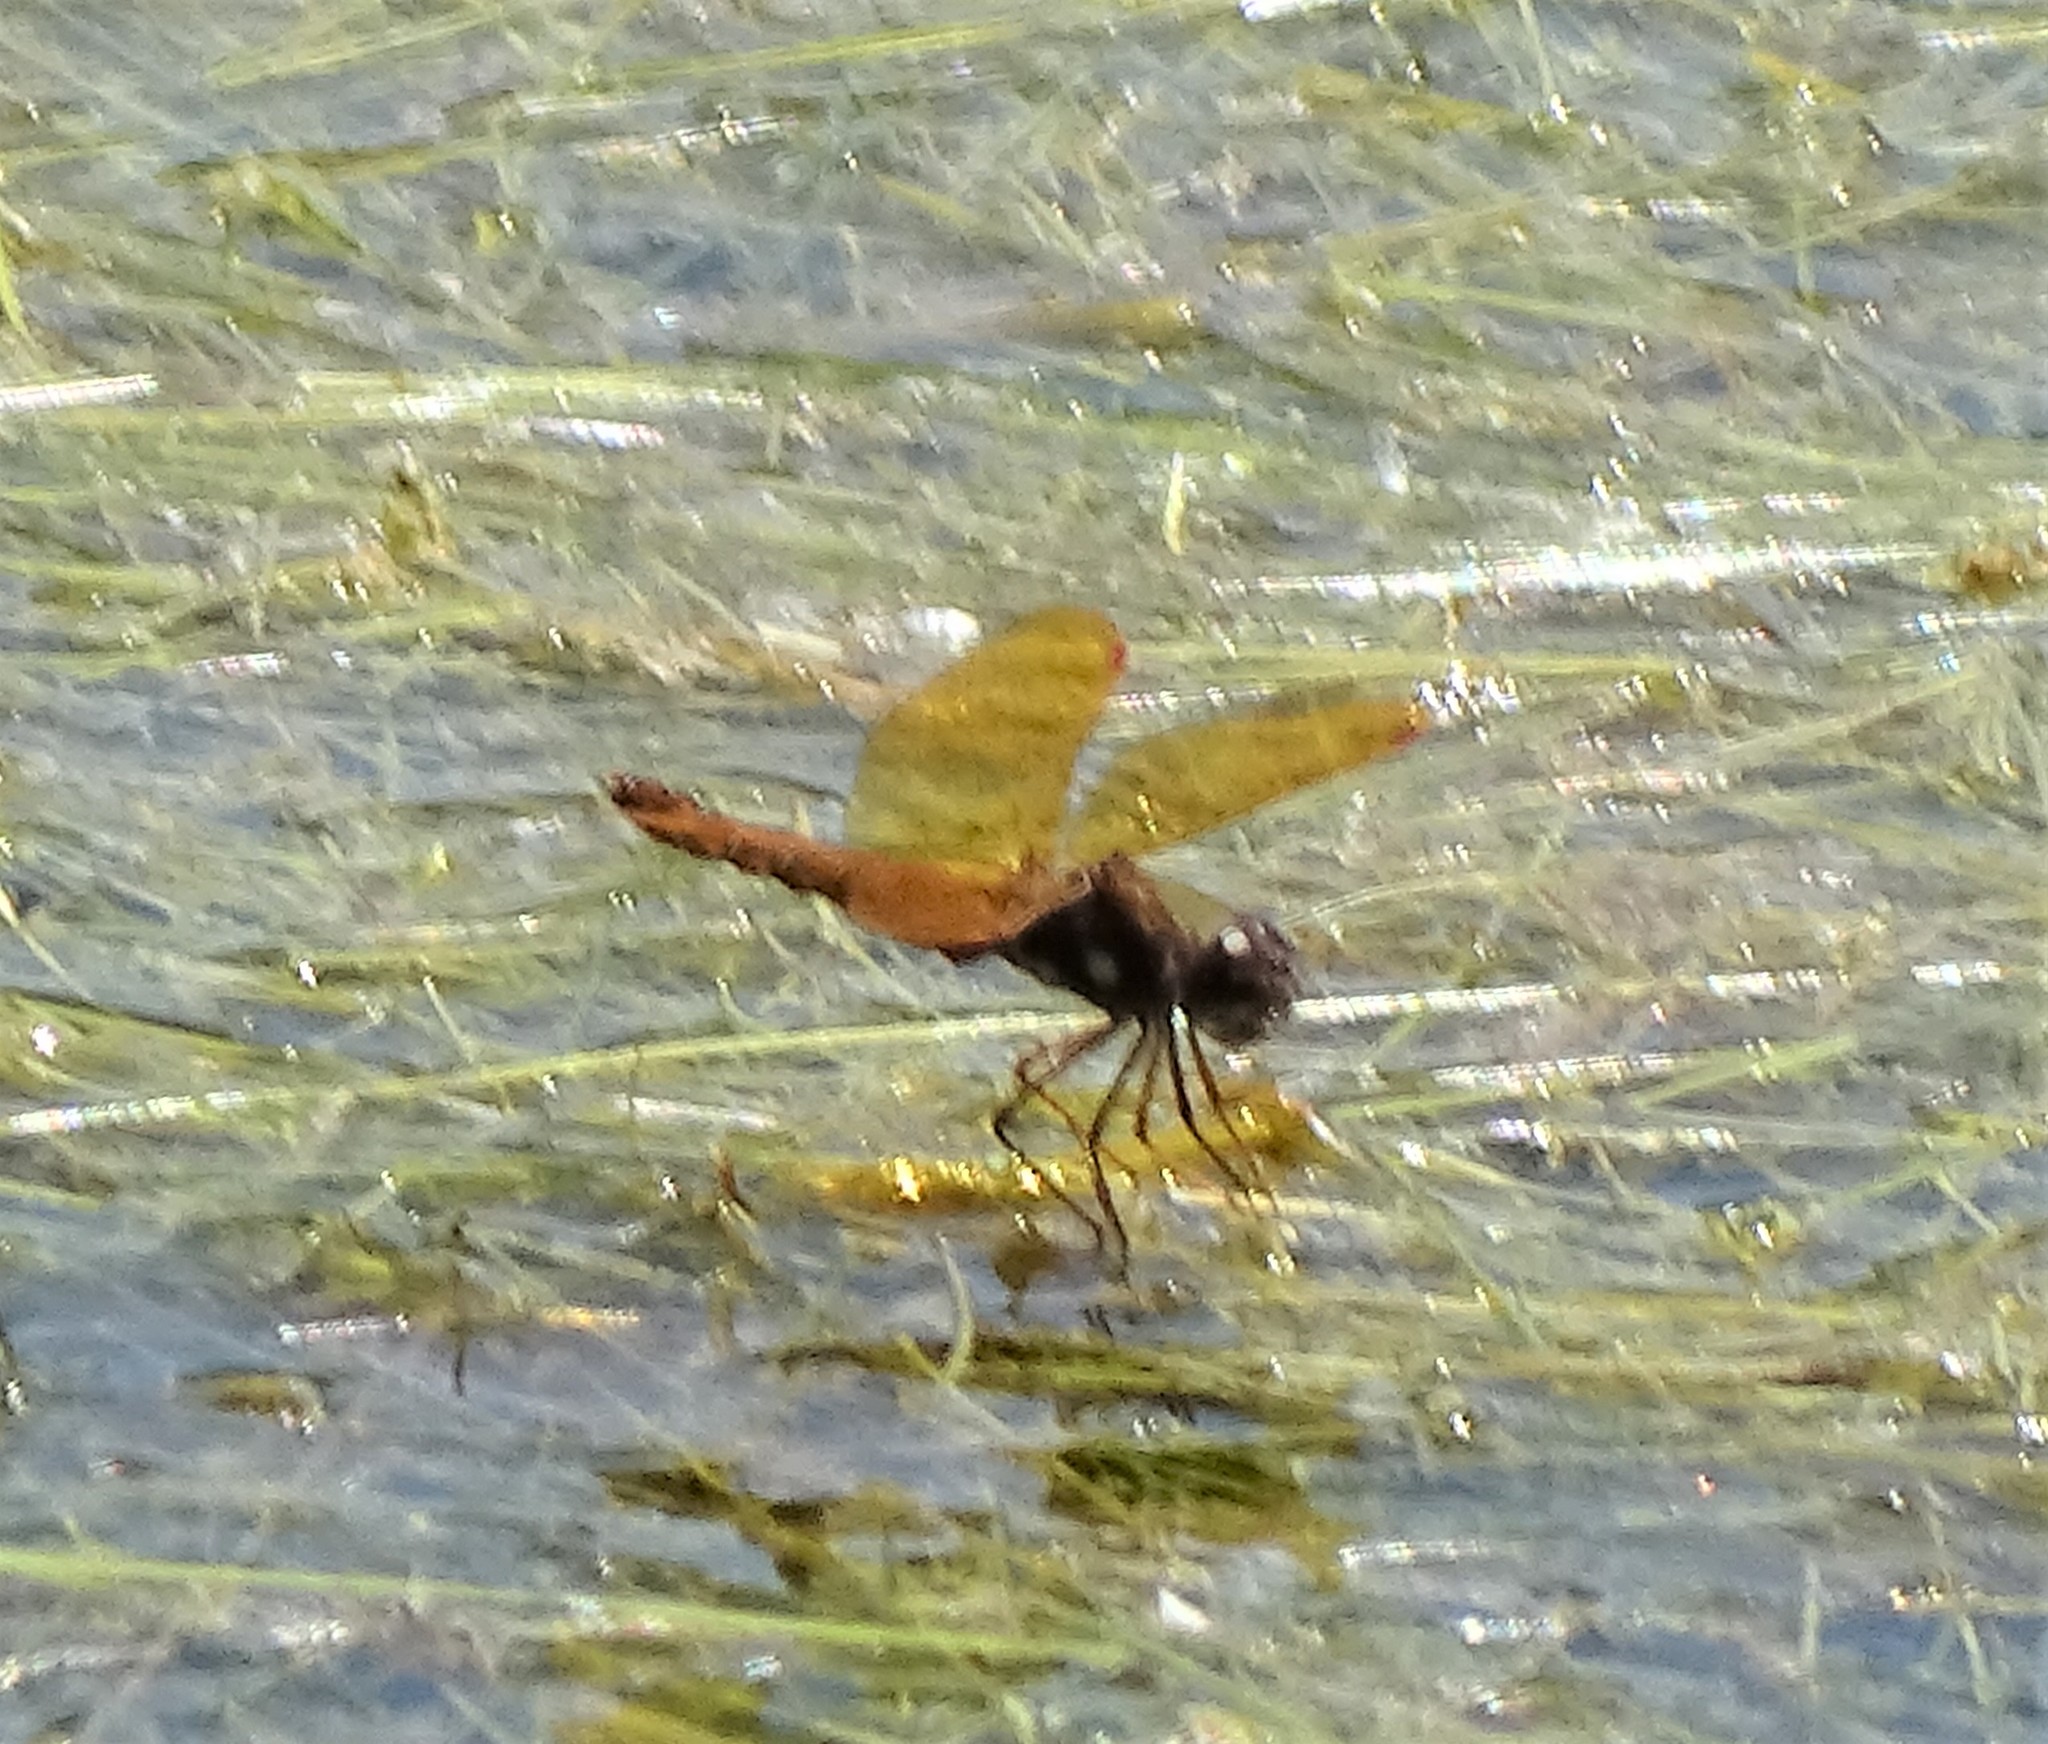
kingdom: Animalia
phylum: Arthropoda
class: Insecta
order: Odonata
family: Libellulidae
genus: Perithemis
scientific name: Perithemis tenera
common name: Eastern amberwing
